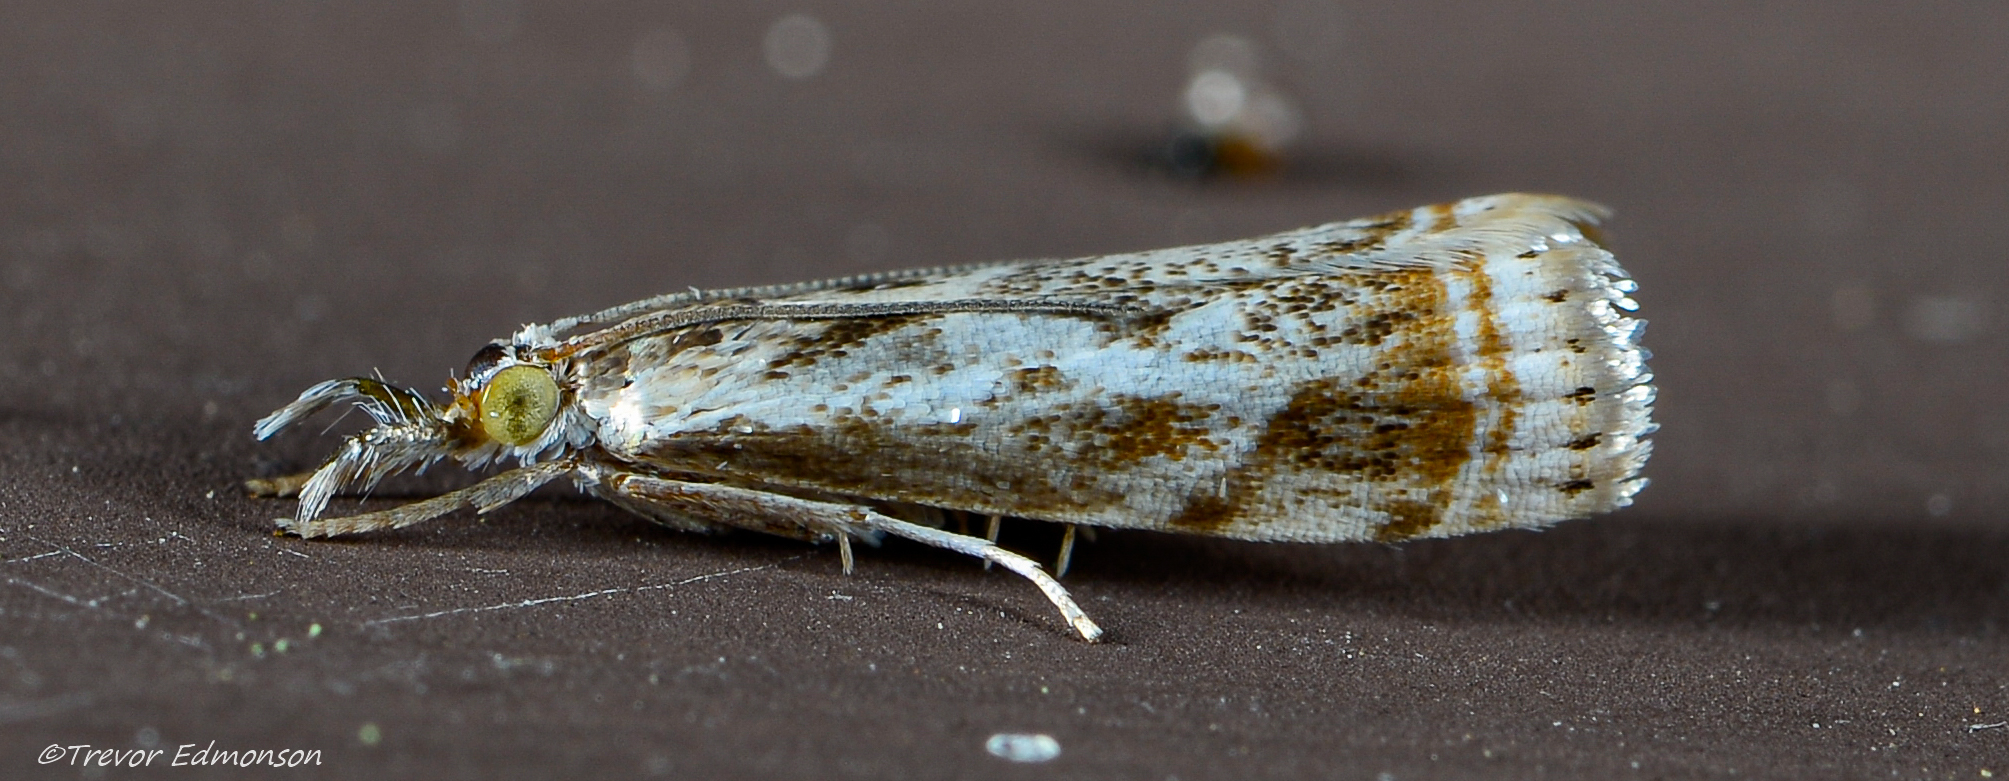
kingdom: Animalia
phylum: Arthropoda
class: Insecta
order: Lepidoptera
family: Crambidae
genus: Microcrambus
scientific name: Microcrambus elegans
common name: Elegant grass-veneer
